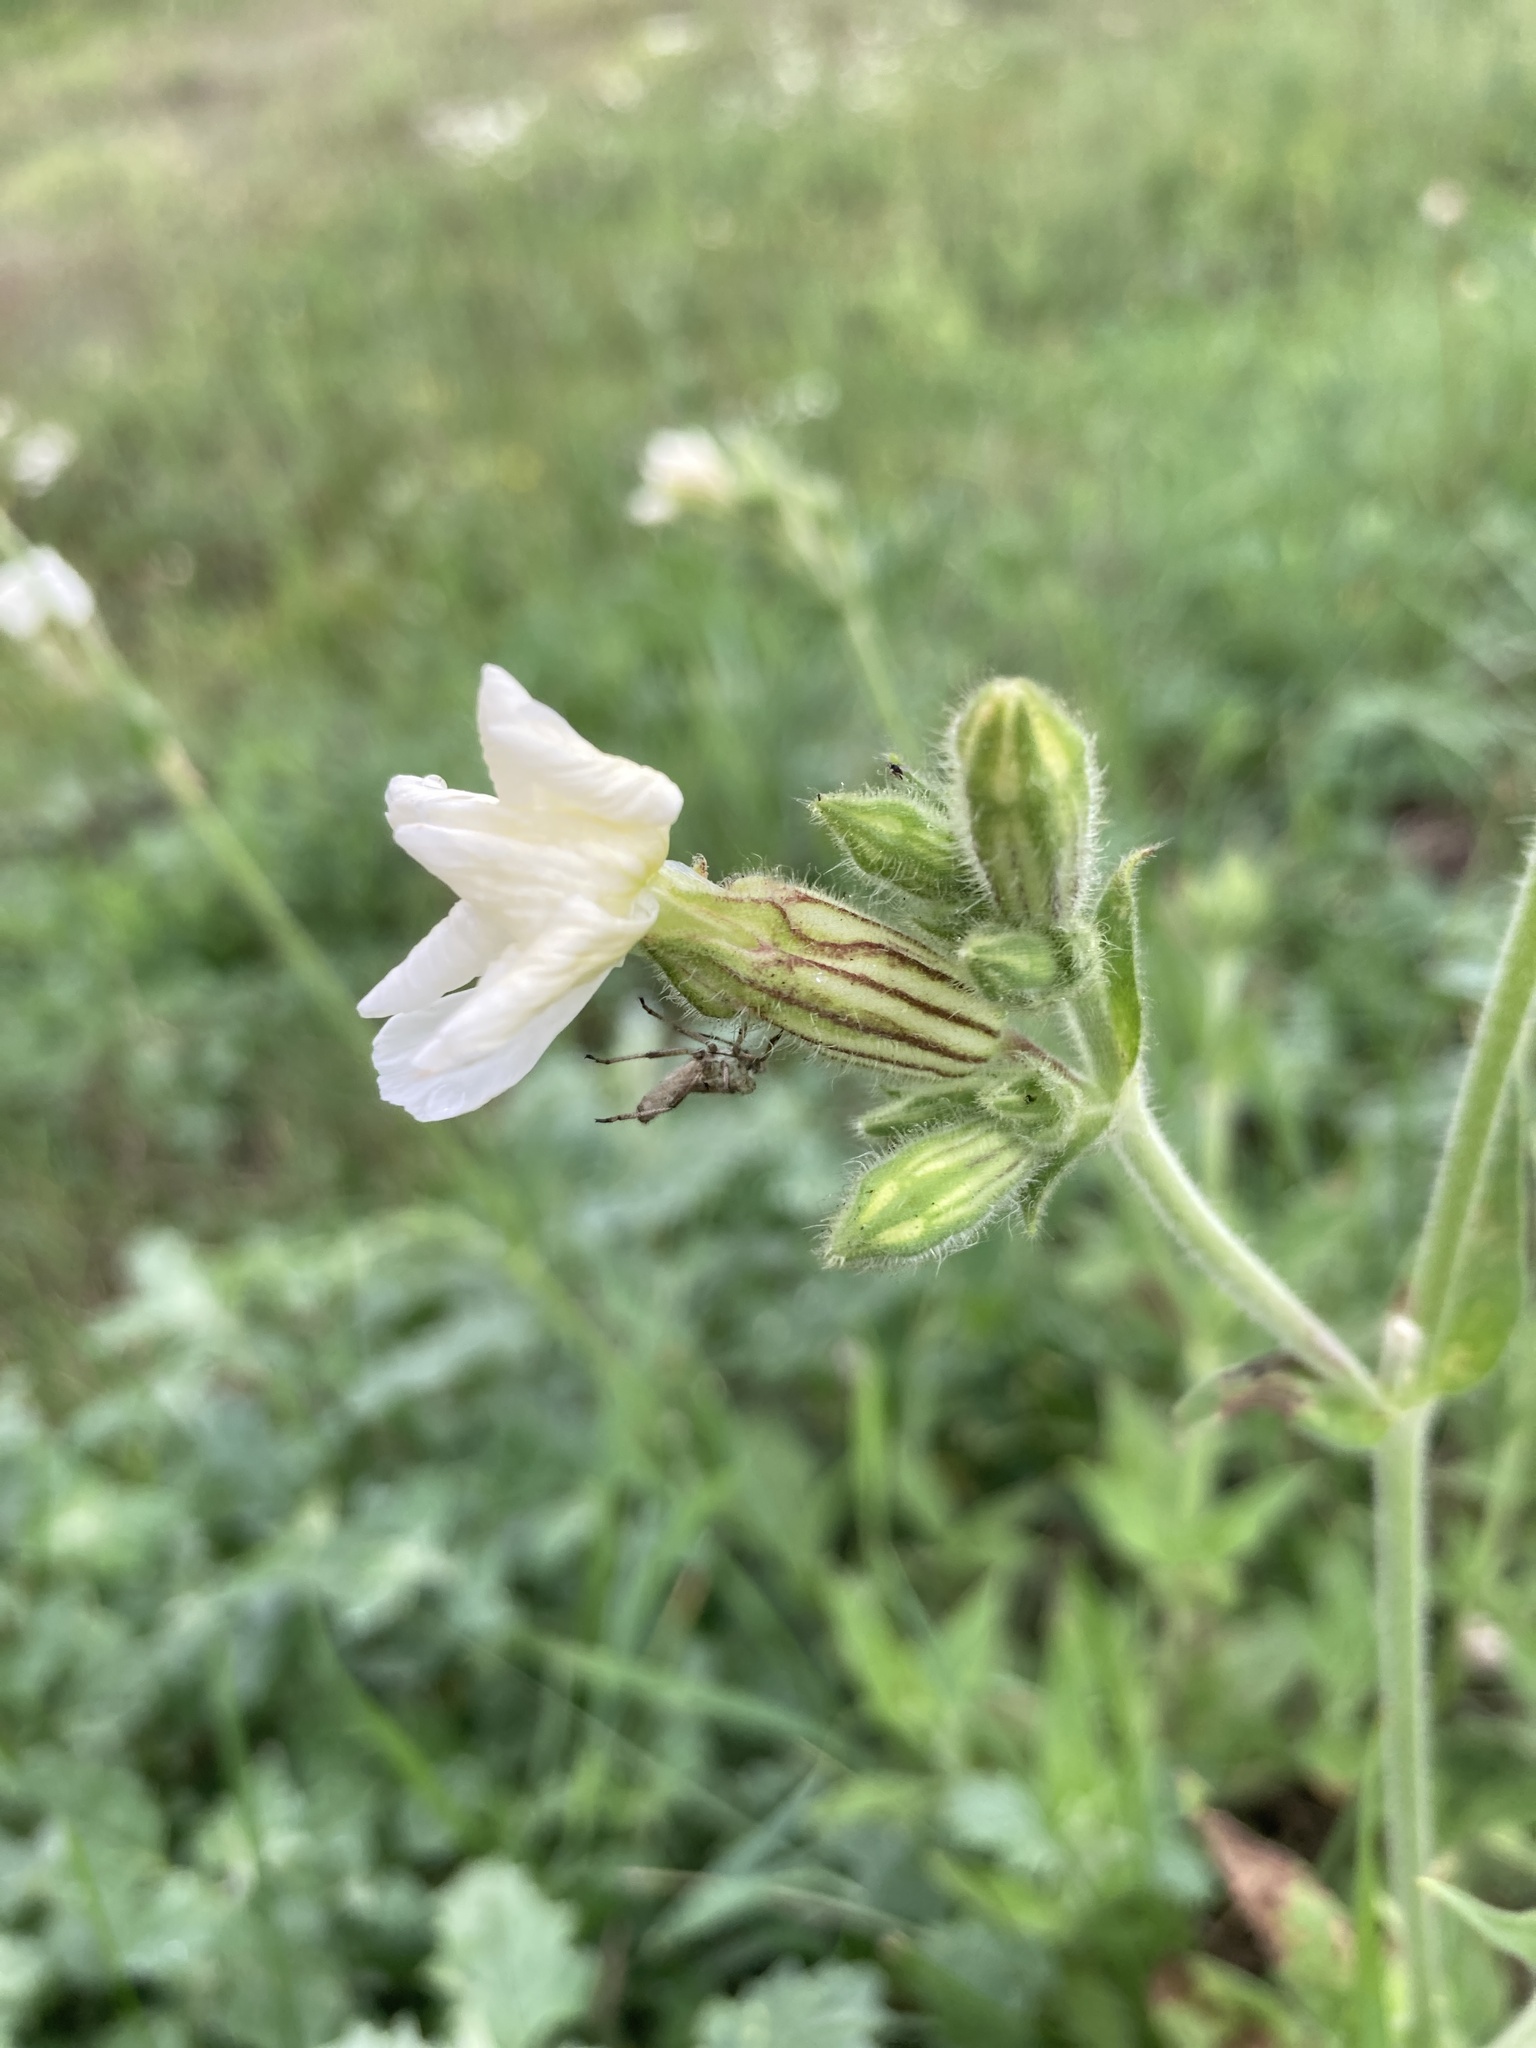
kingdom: Plantae
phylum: Tracheophyta
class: Magnoliopsida
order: Caryophyllales
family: Caryophyllaceae
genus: Silene
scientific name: Silene latifolia
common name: White campion
